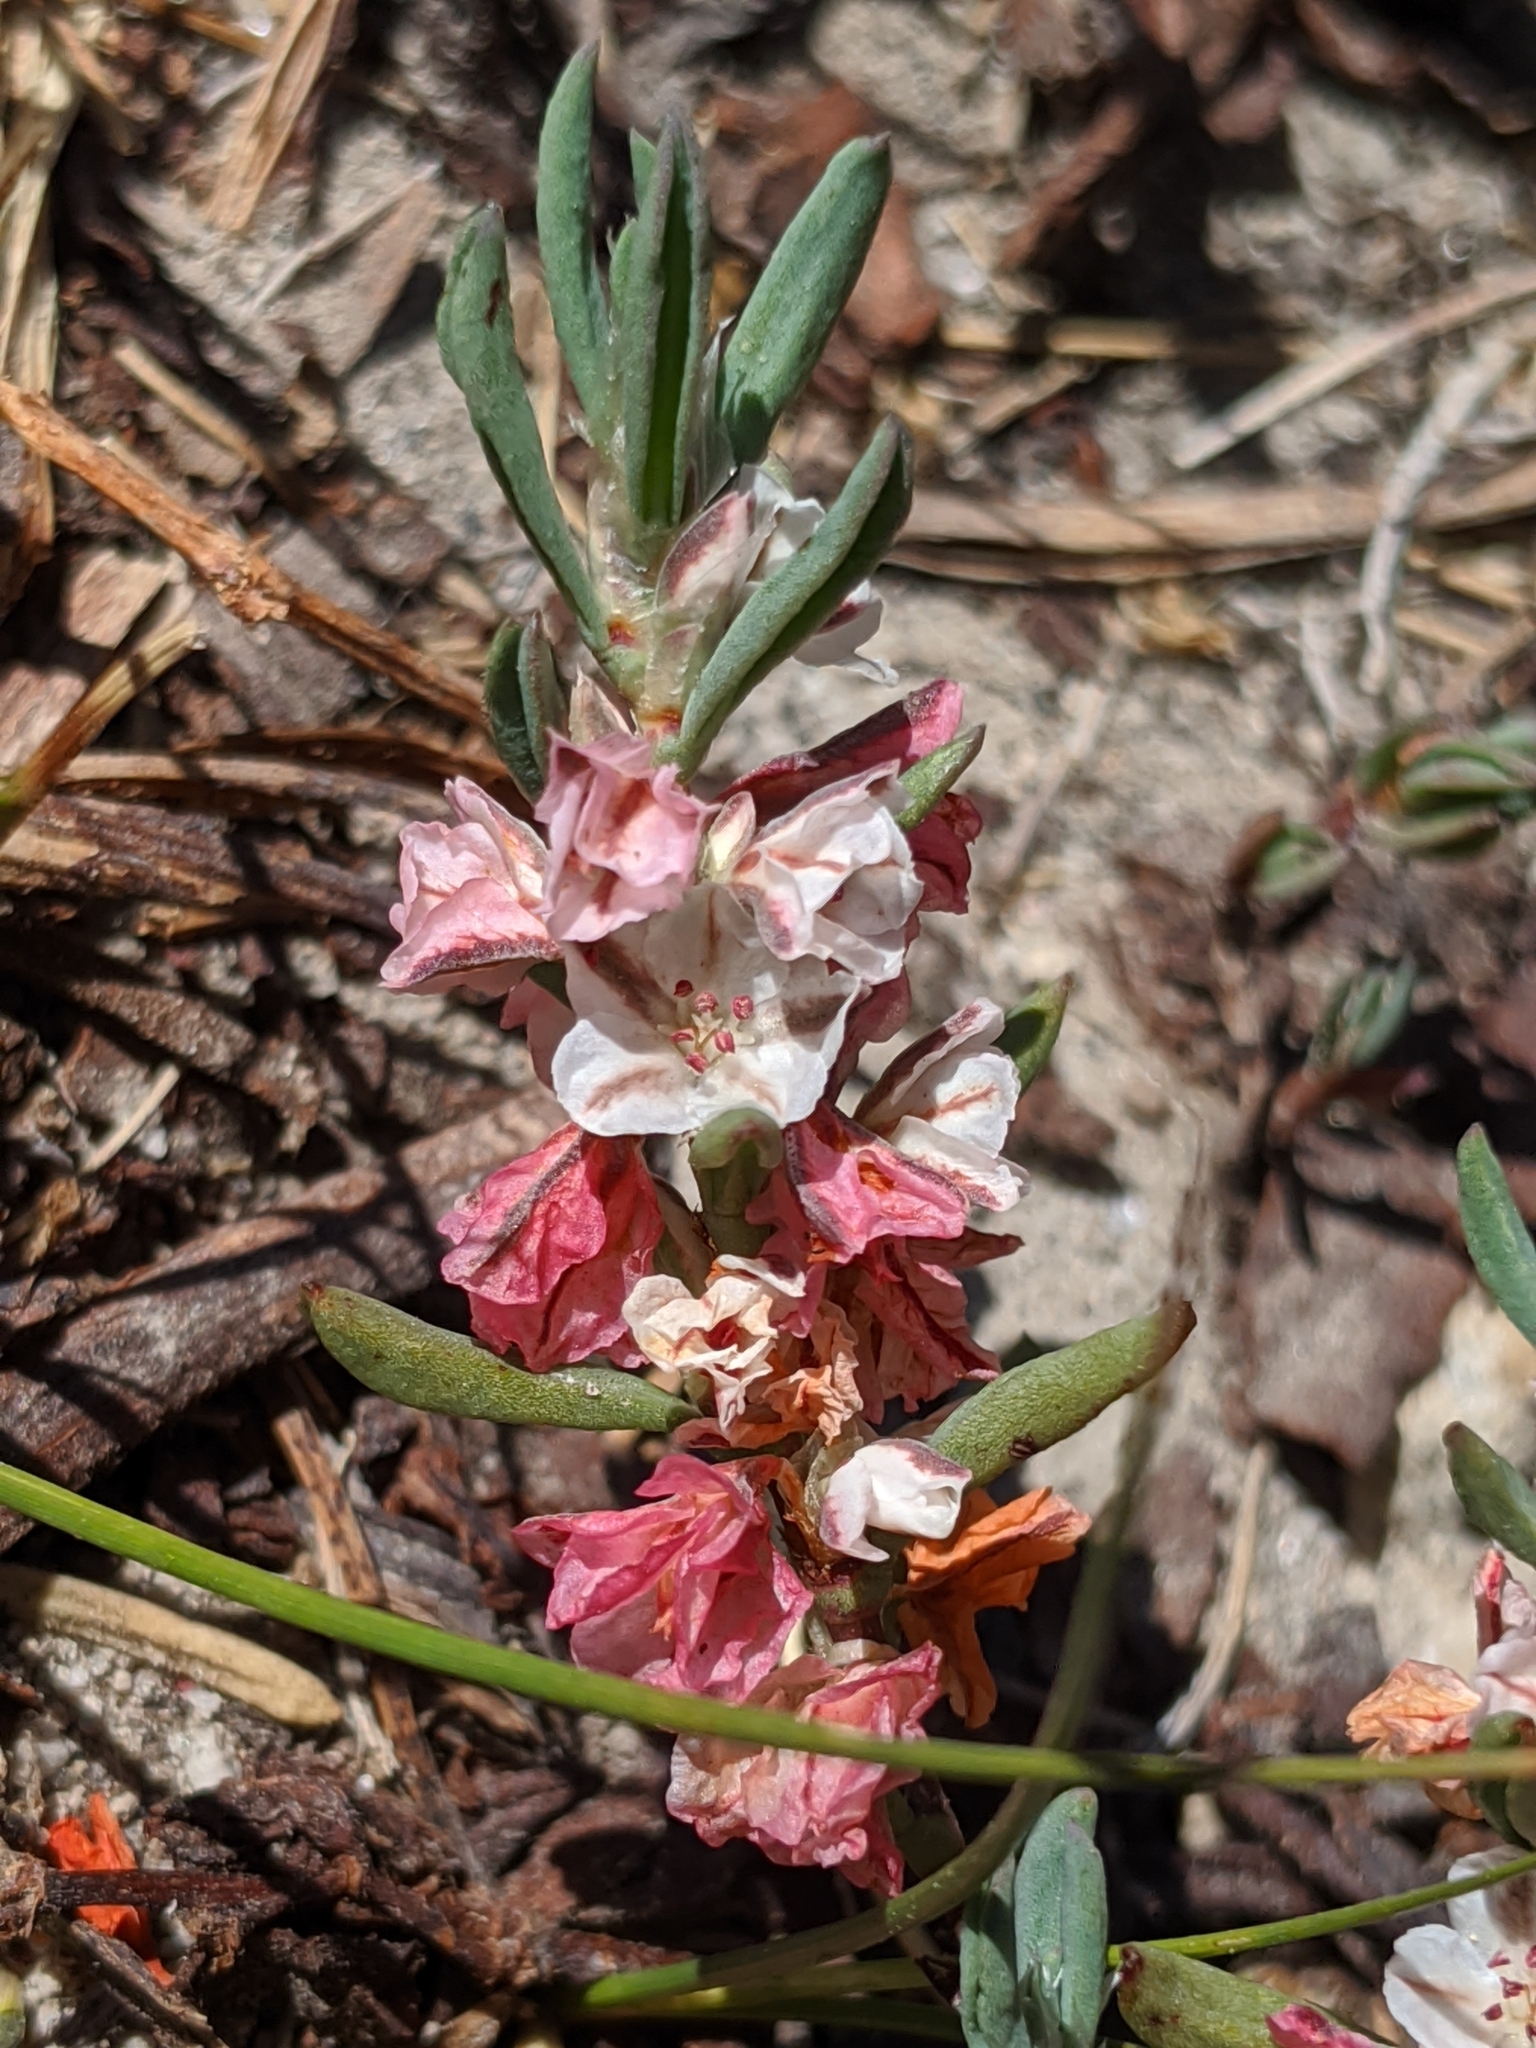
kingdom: Plantae
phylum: Tracheophyta
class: Magnoliopsida
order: Caryophyllales
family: Polygonaceae
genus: Polygonum
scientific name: Polygonum shastense
